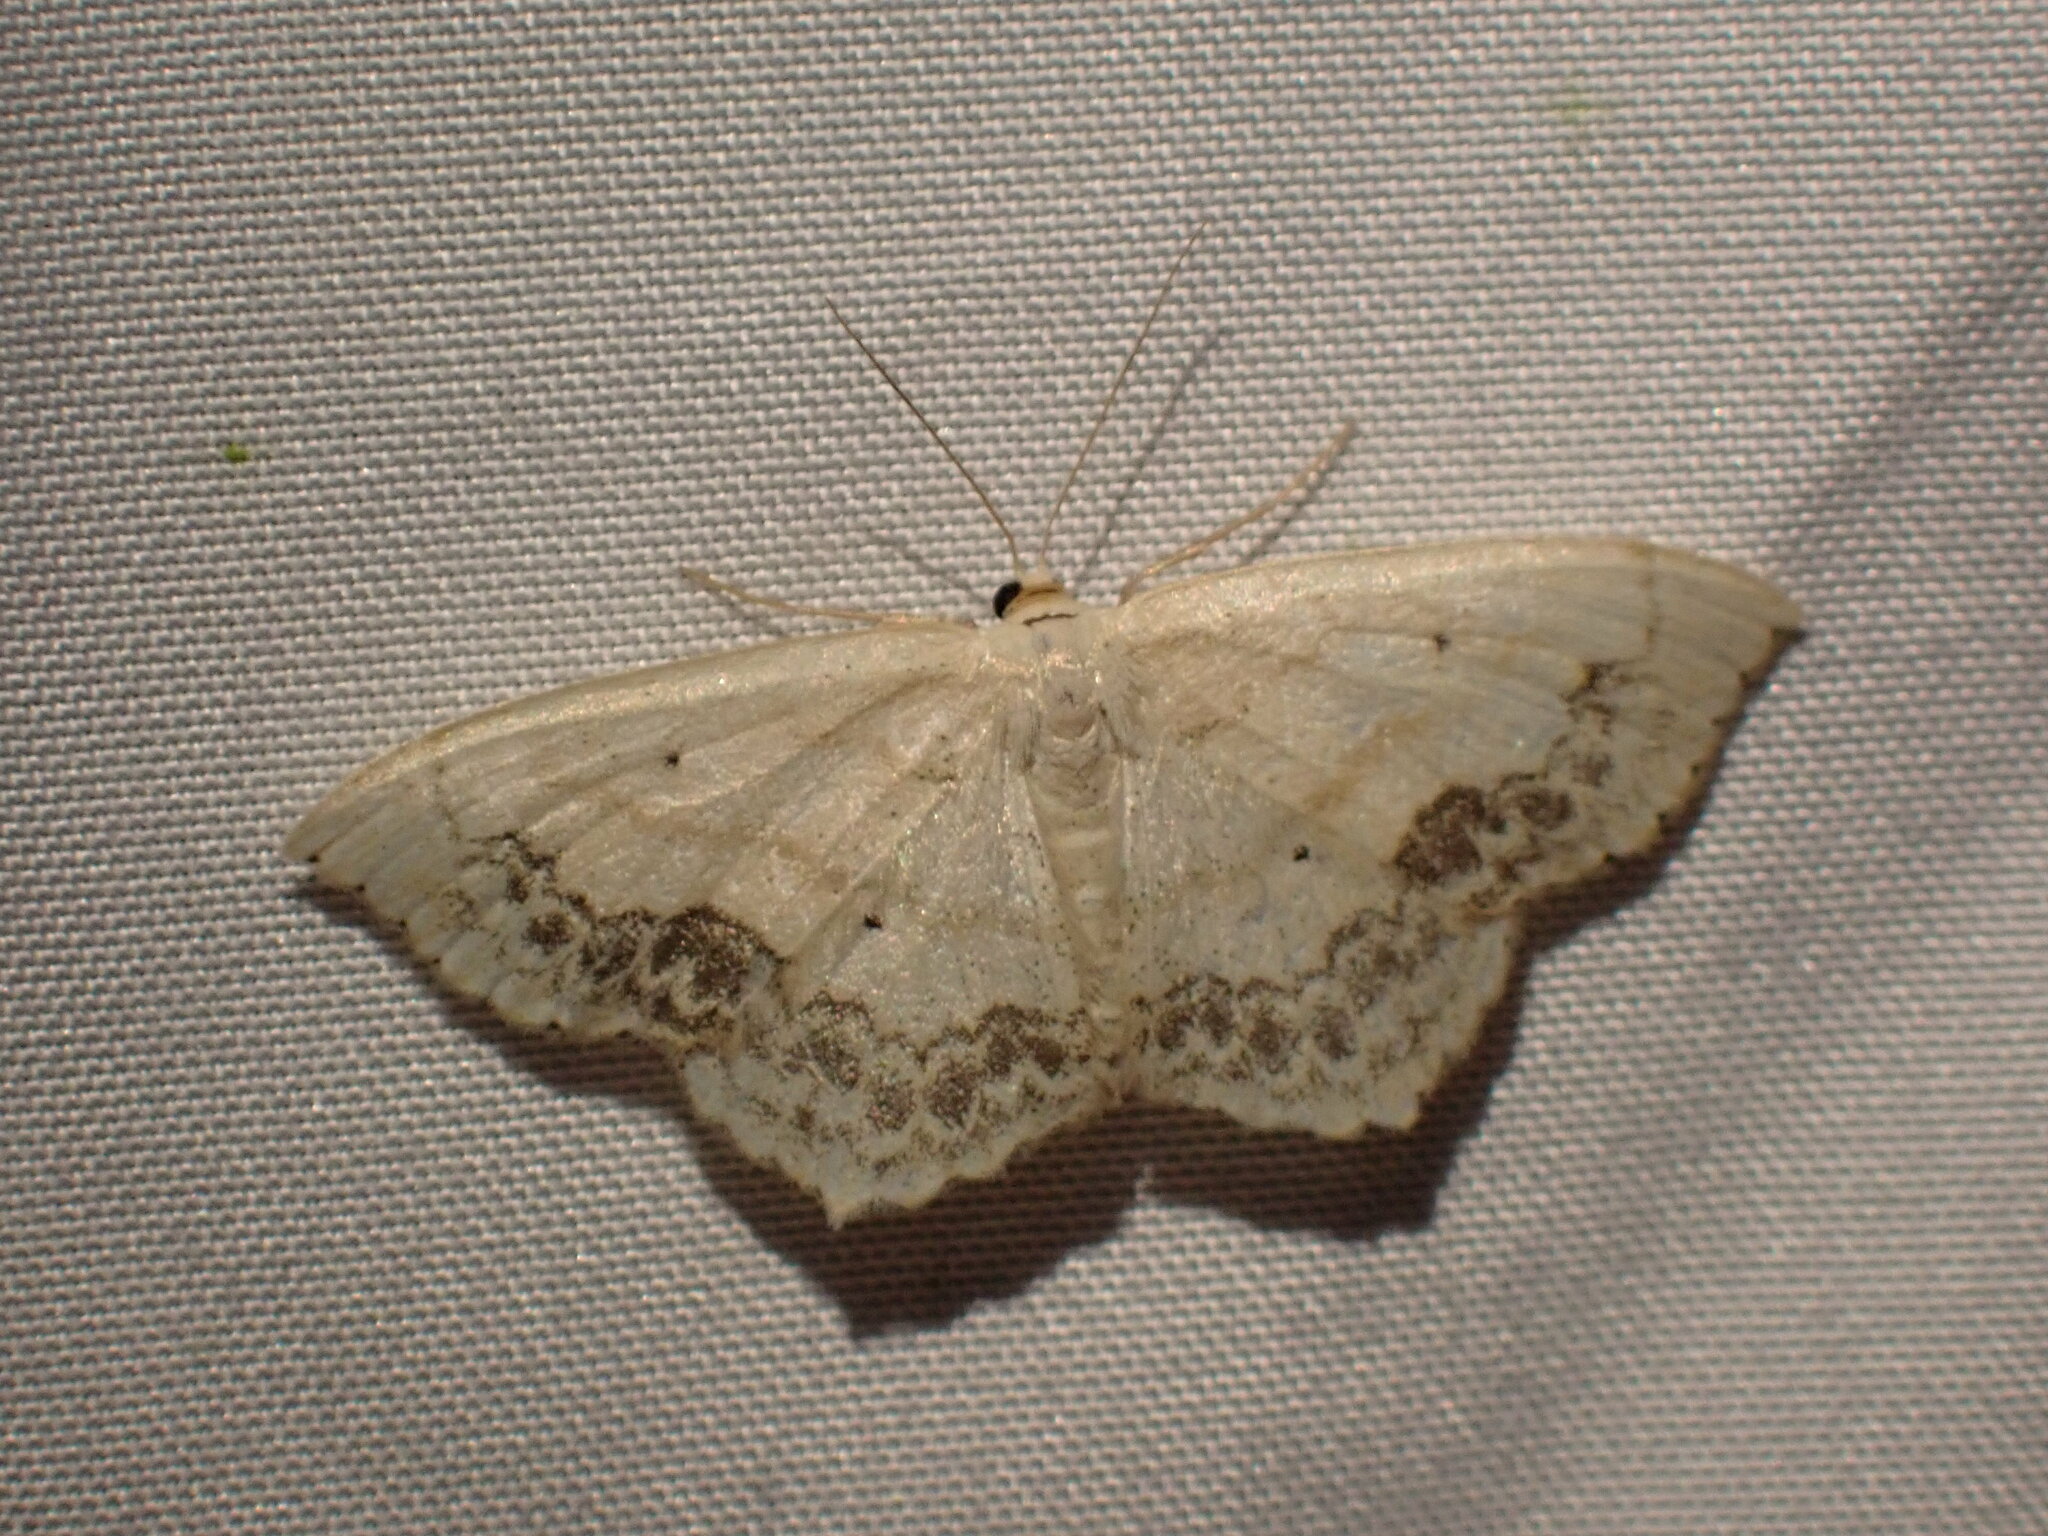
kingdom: Animalia
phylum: Arthropoda
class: Insecta
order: Lepidoptera
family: Geometridae
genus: Scopula
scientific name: Scopula limboundata
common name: Large lace border
